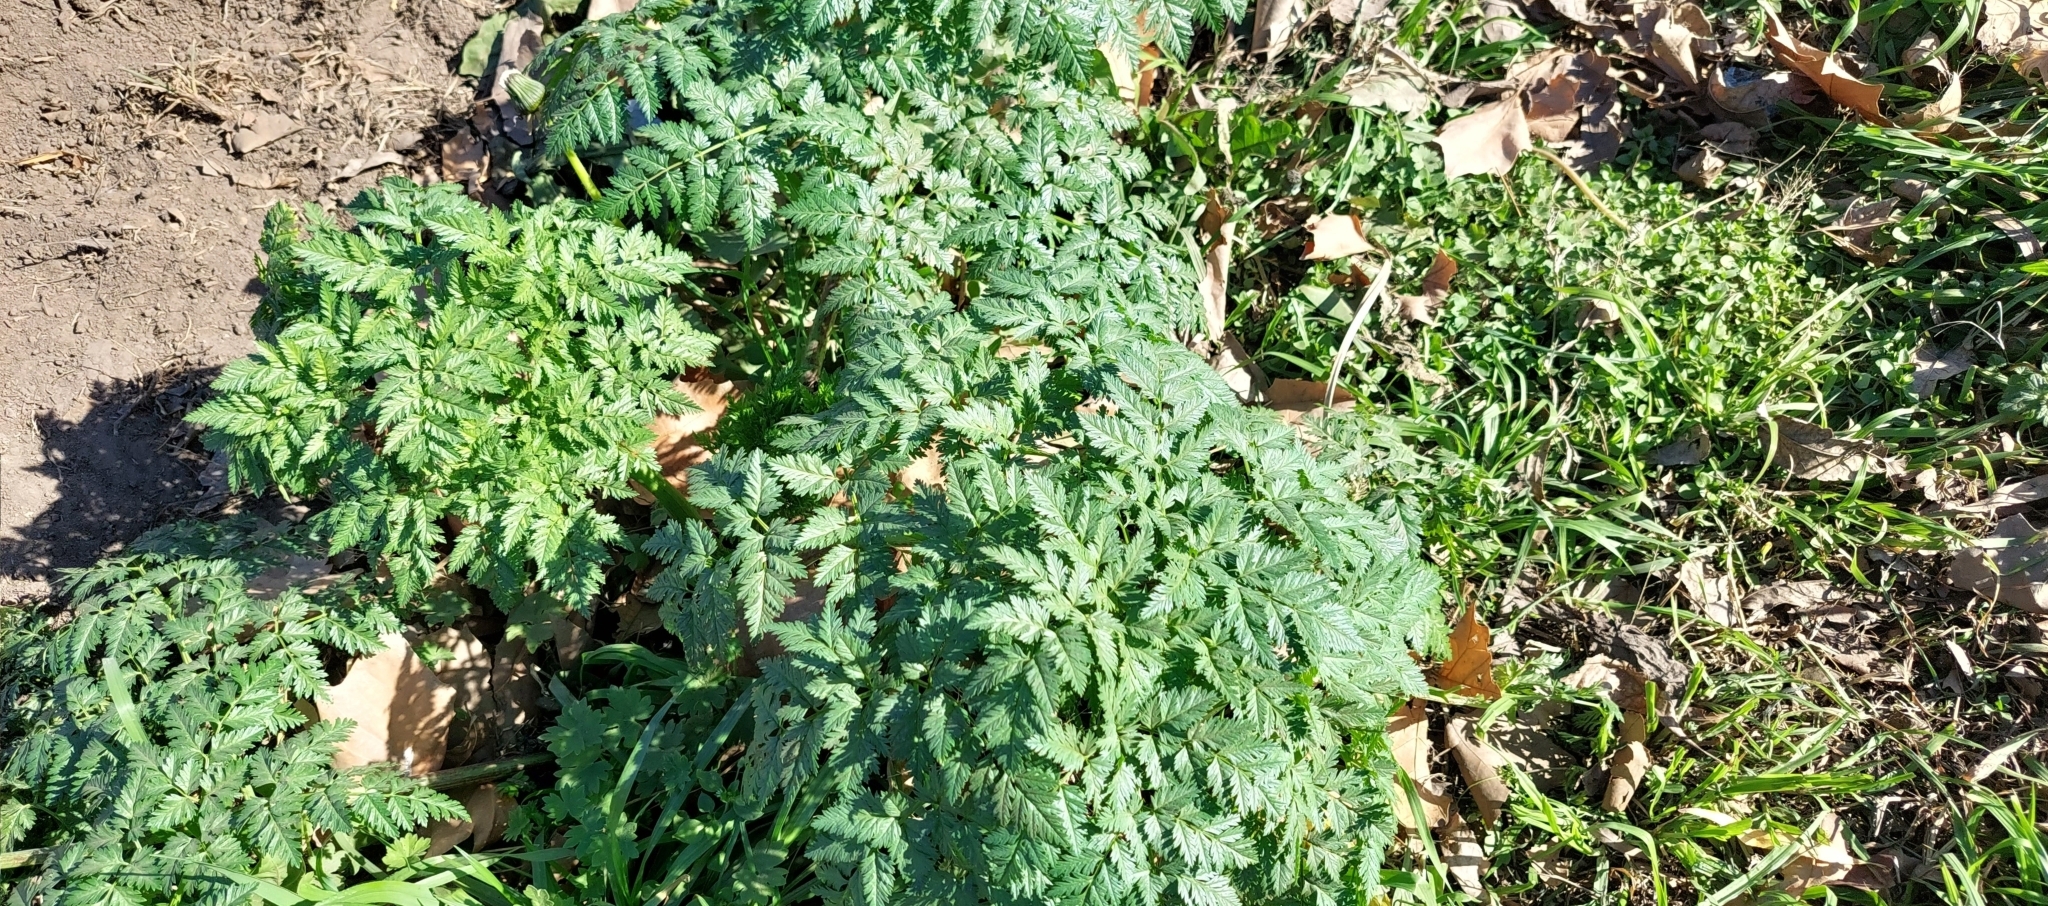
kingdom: Plantae
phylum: Tracheophyta
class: Magnoliopsida
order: Apiales
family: Apiaceae
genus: Conium
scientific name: Conium maculatum
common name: Hemlock
